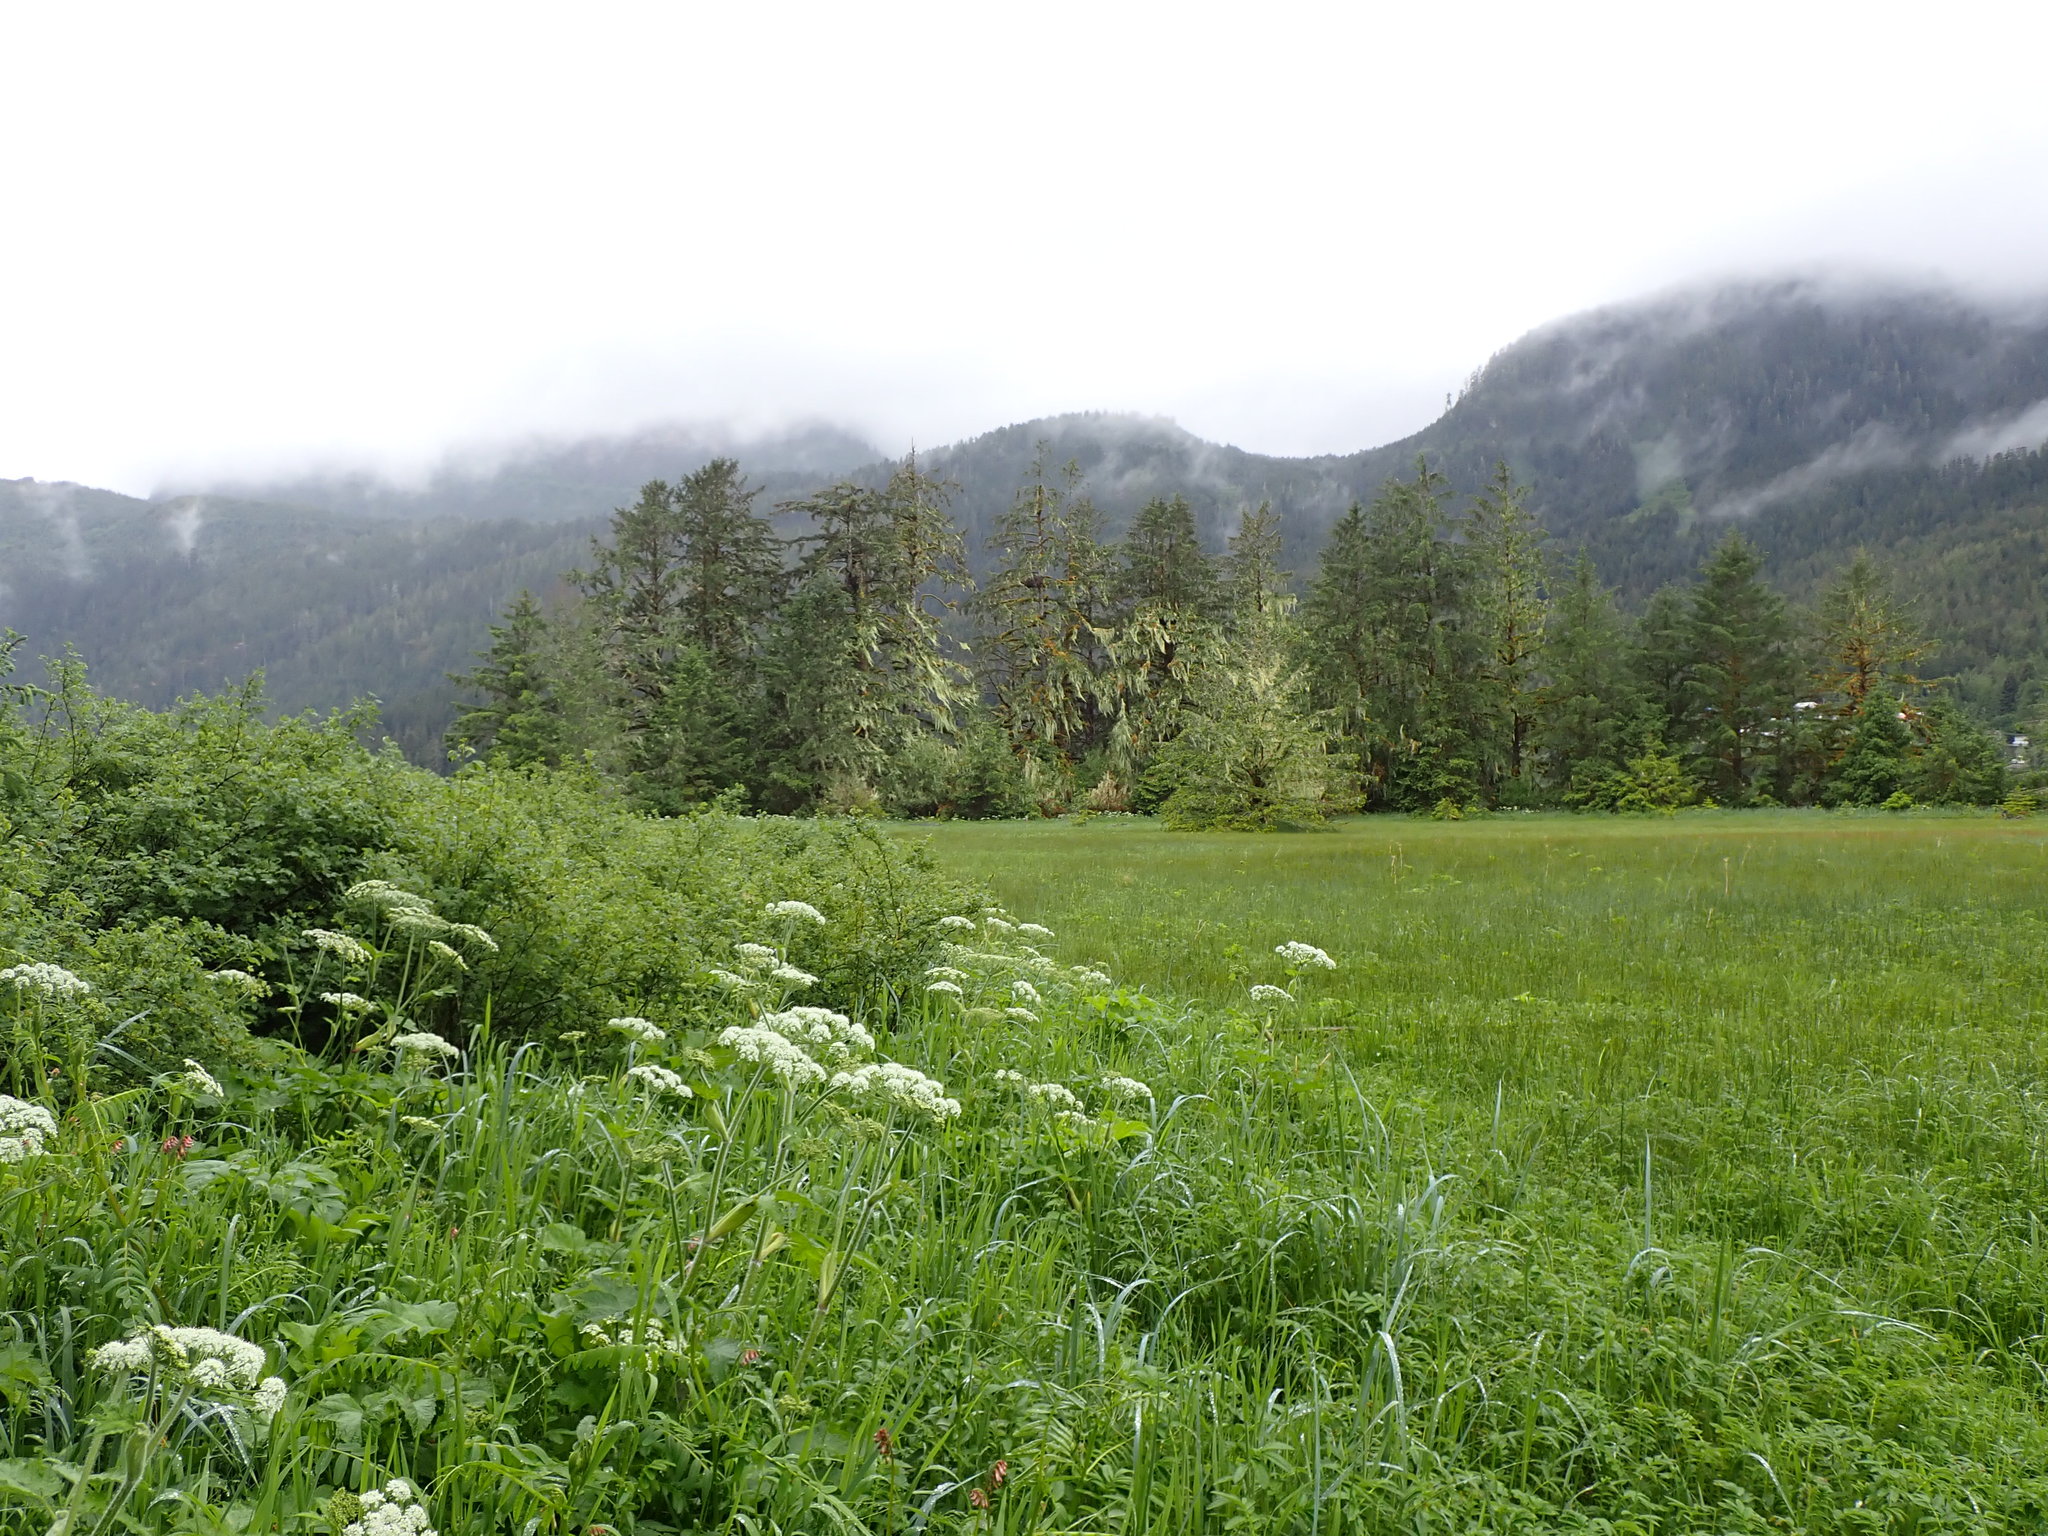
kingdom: Fungi
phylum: Ascomycota
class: Lecanoromycetes
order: Lecanorales
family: Parmeliaceae
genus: Dolichousnea
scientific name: Dolichousnea longissima
